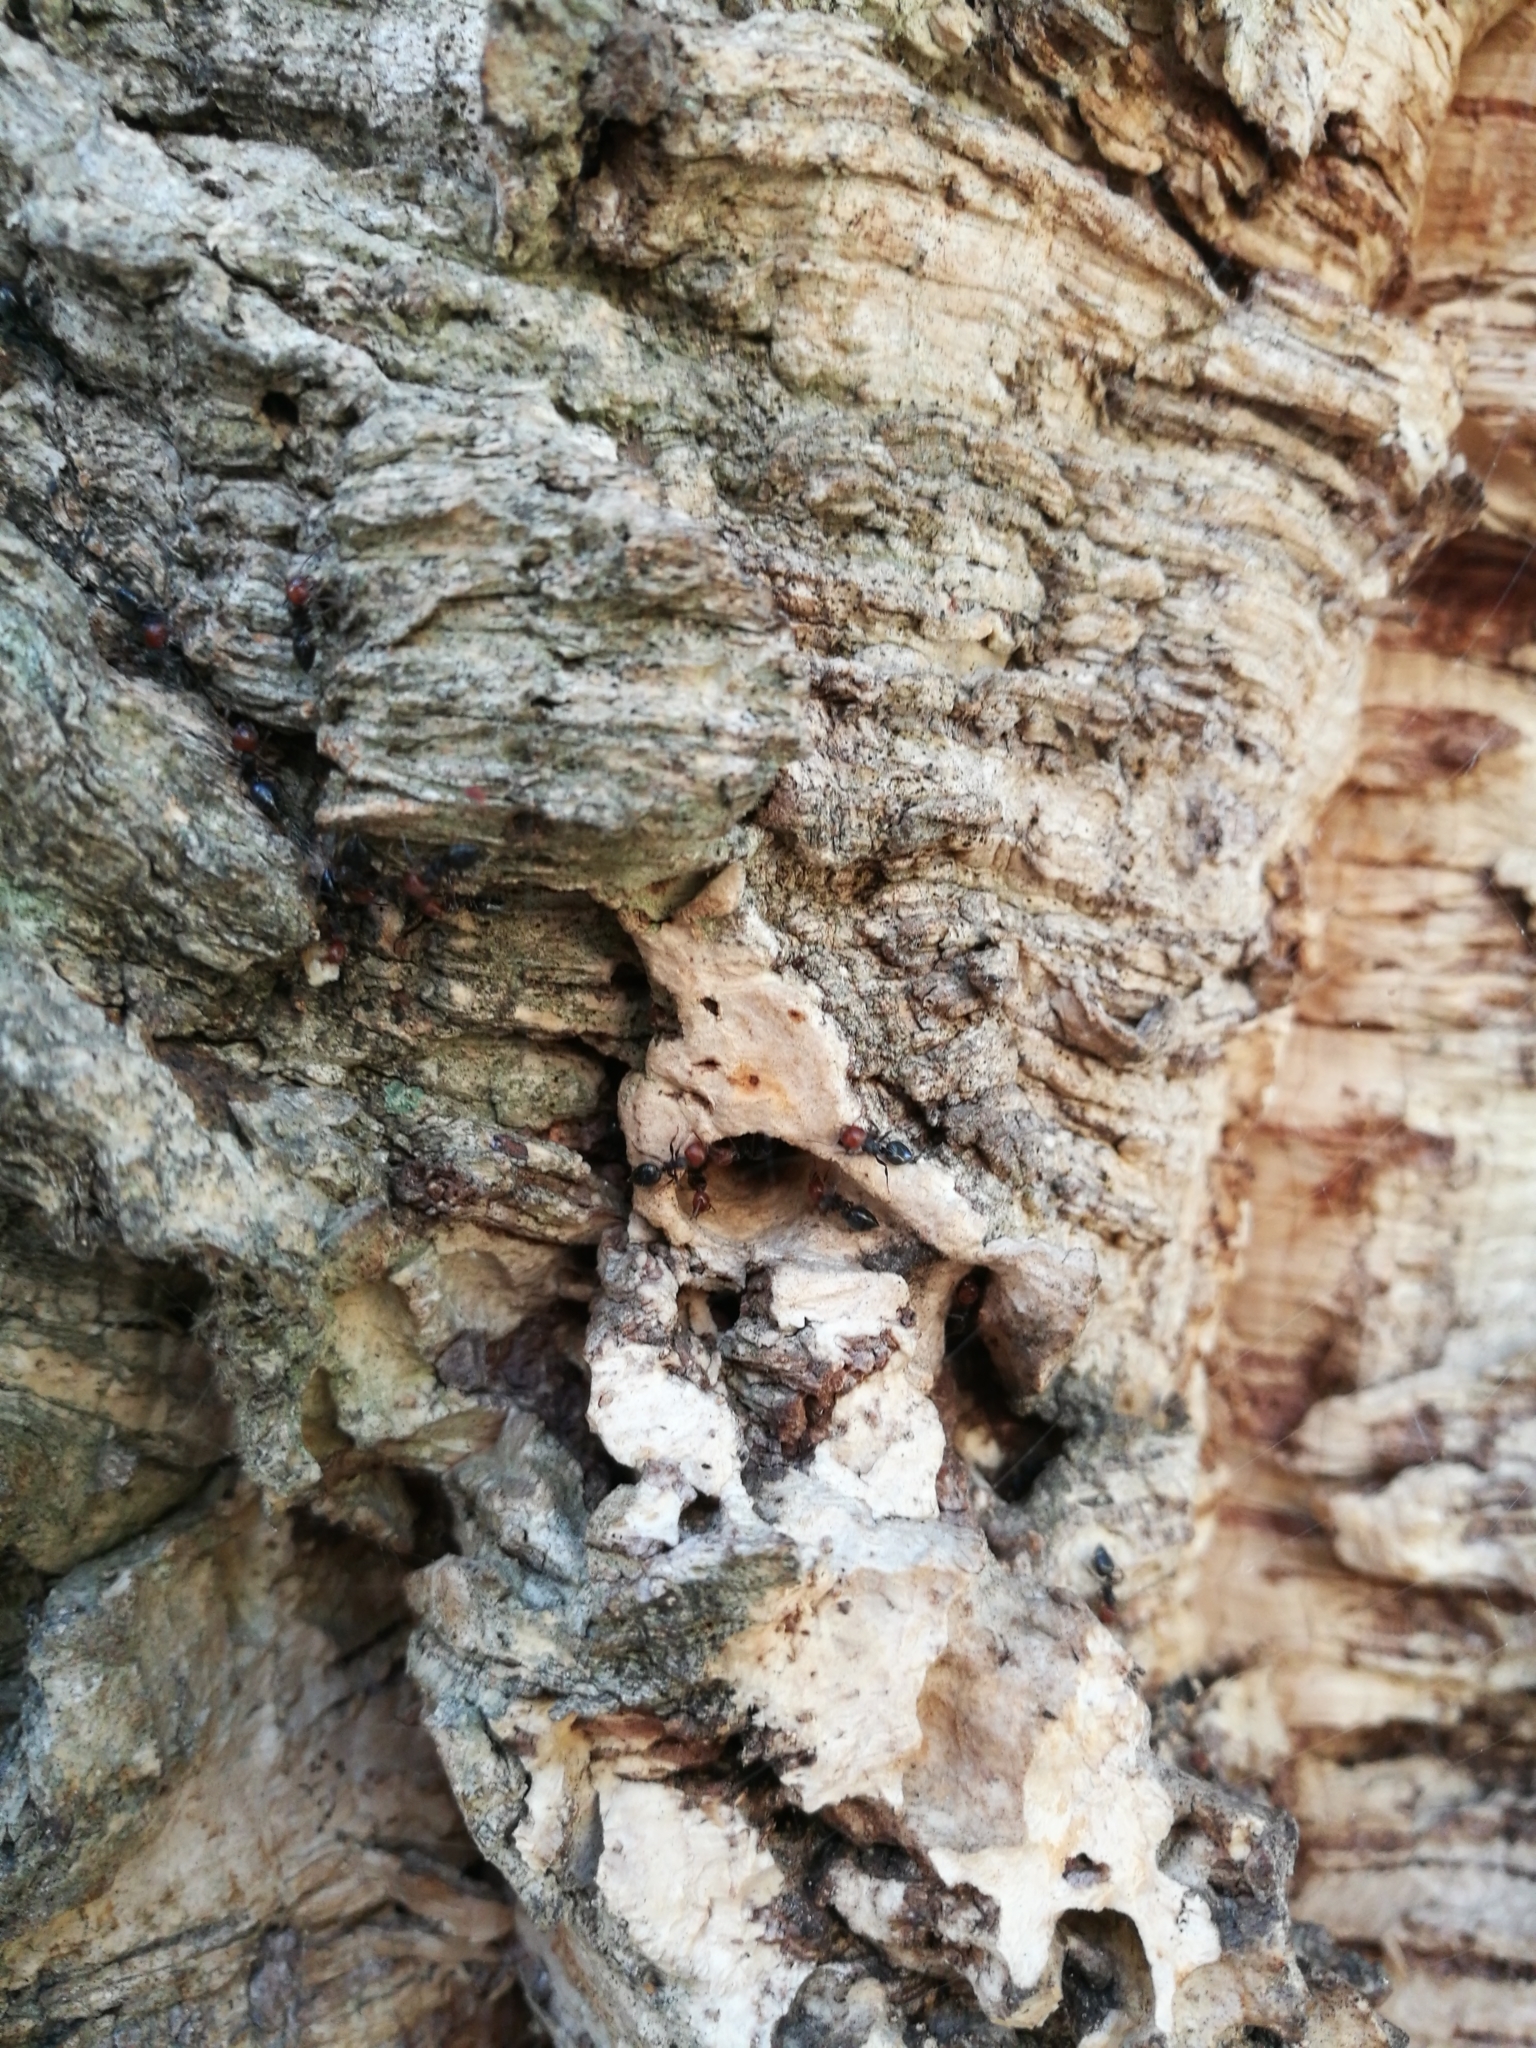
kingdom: Animalia
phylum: Arthropoda
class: Insecta
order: Hymenoptera
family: Formicidae
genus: Crematogaster
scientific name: Crematogaster scutellaris
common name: Fourmi du liège
